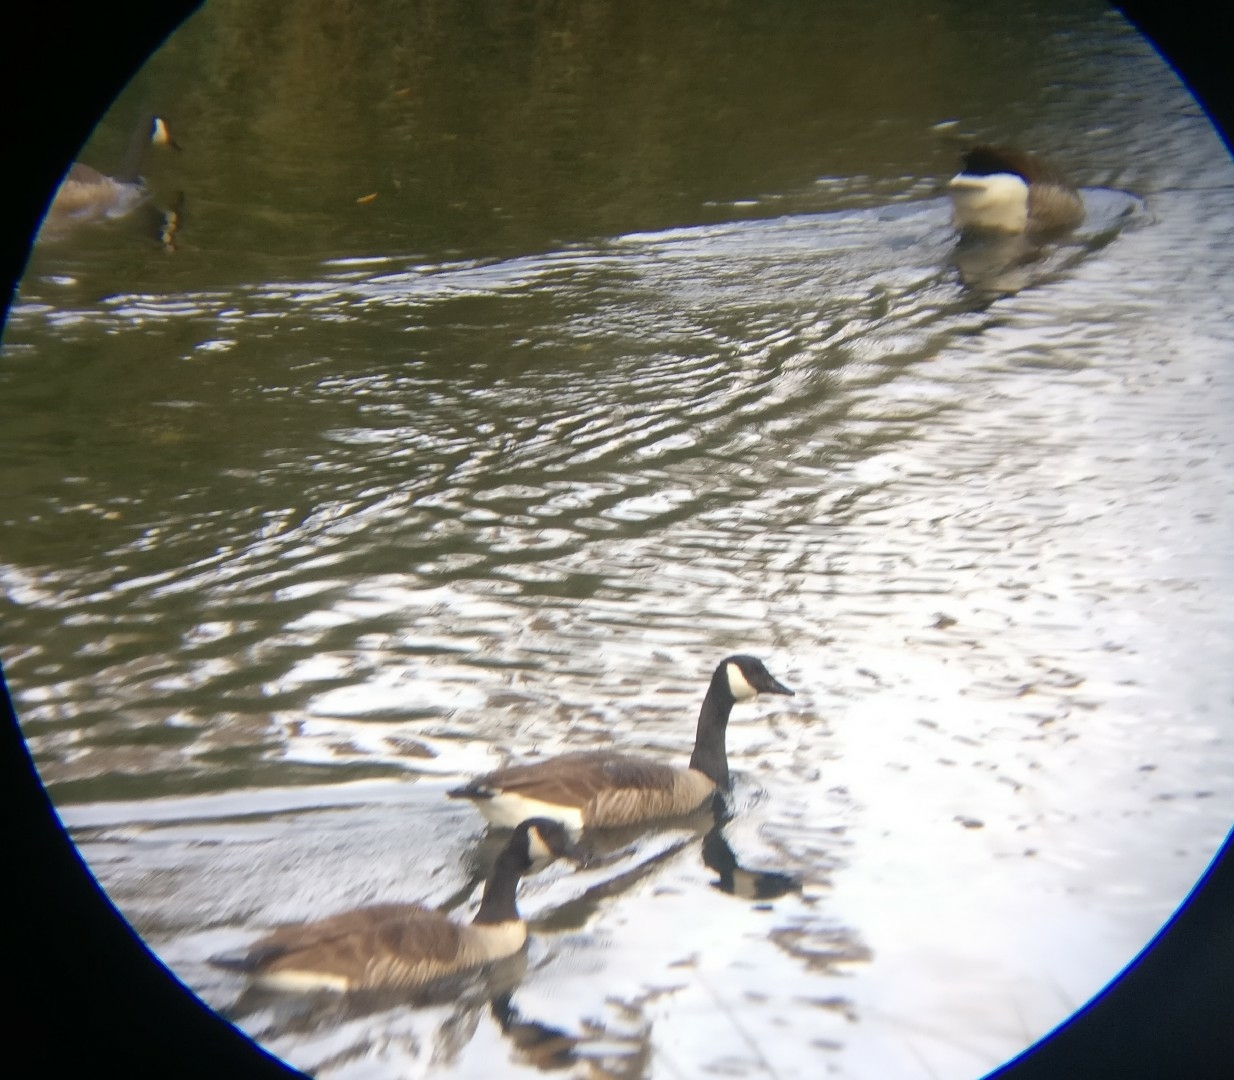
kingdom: Animalia
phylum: Chordata
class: Aves
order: Anseriformes
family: Anatidae
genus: Branta
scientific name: Branta canadensis
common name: Canada goose
